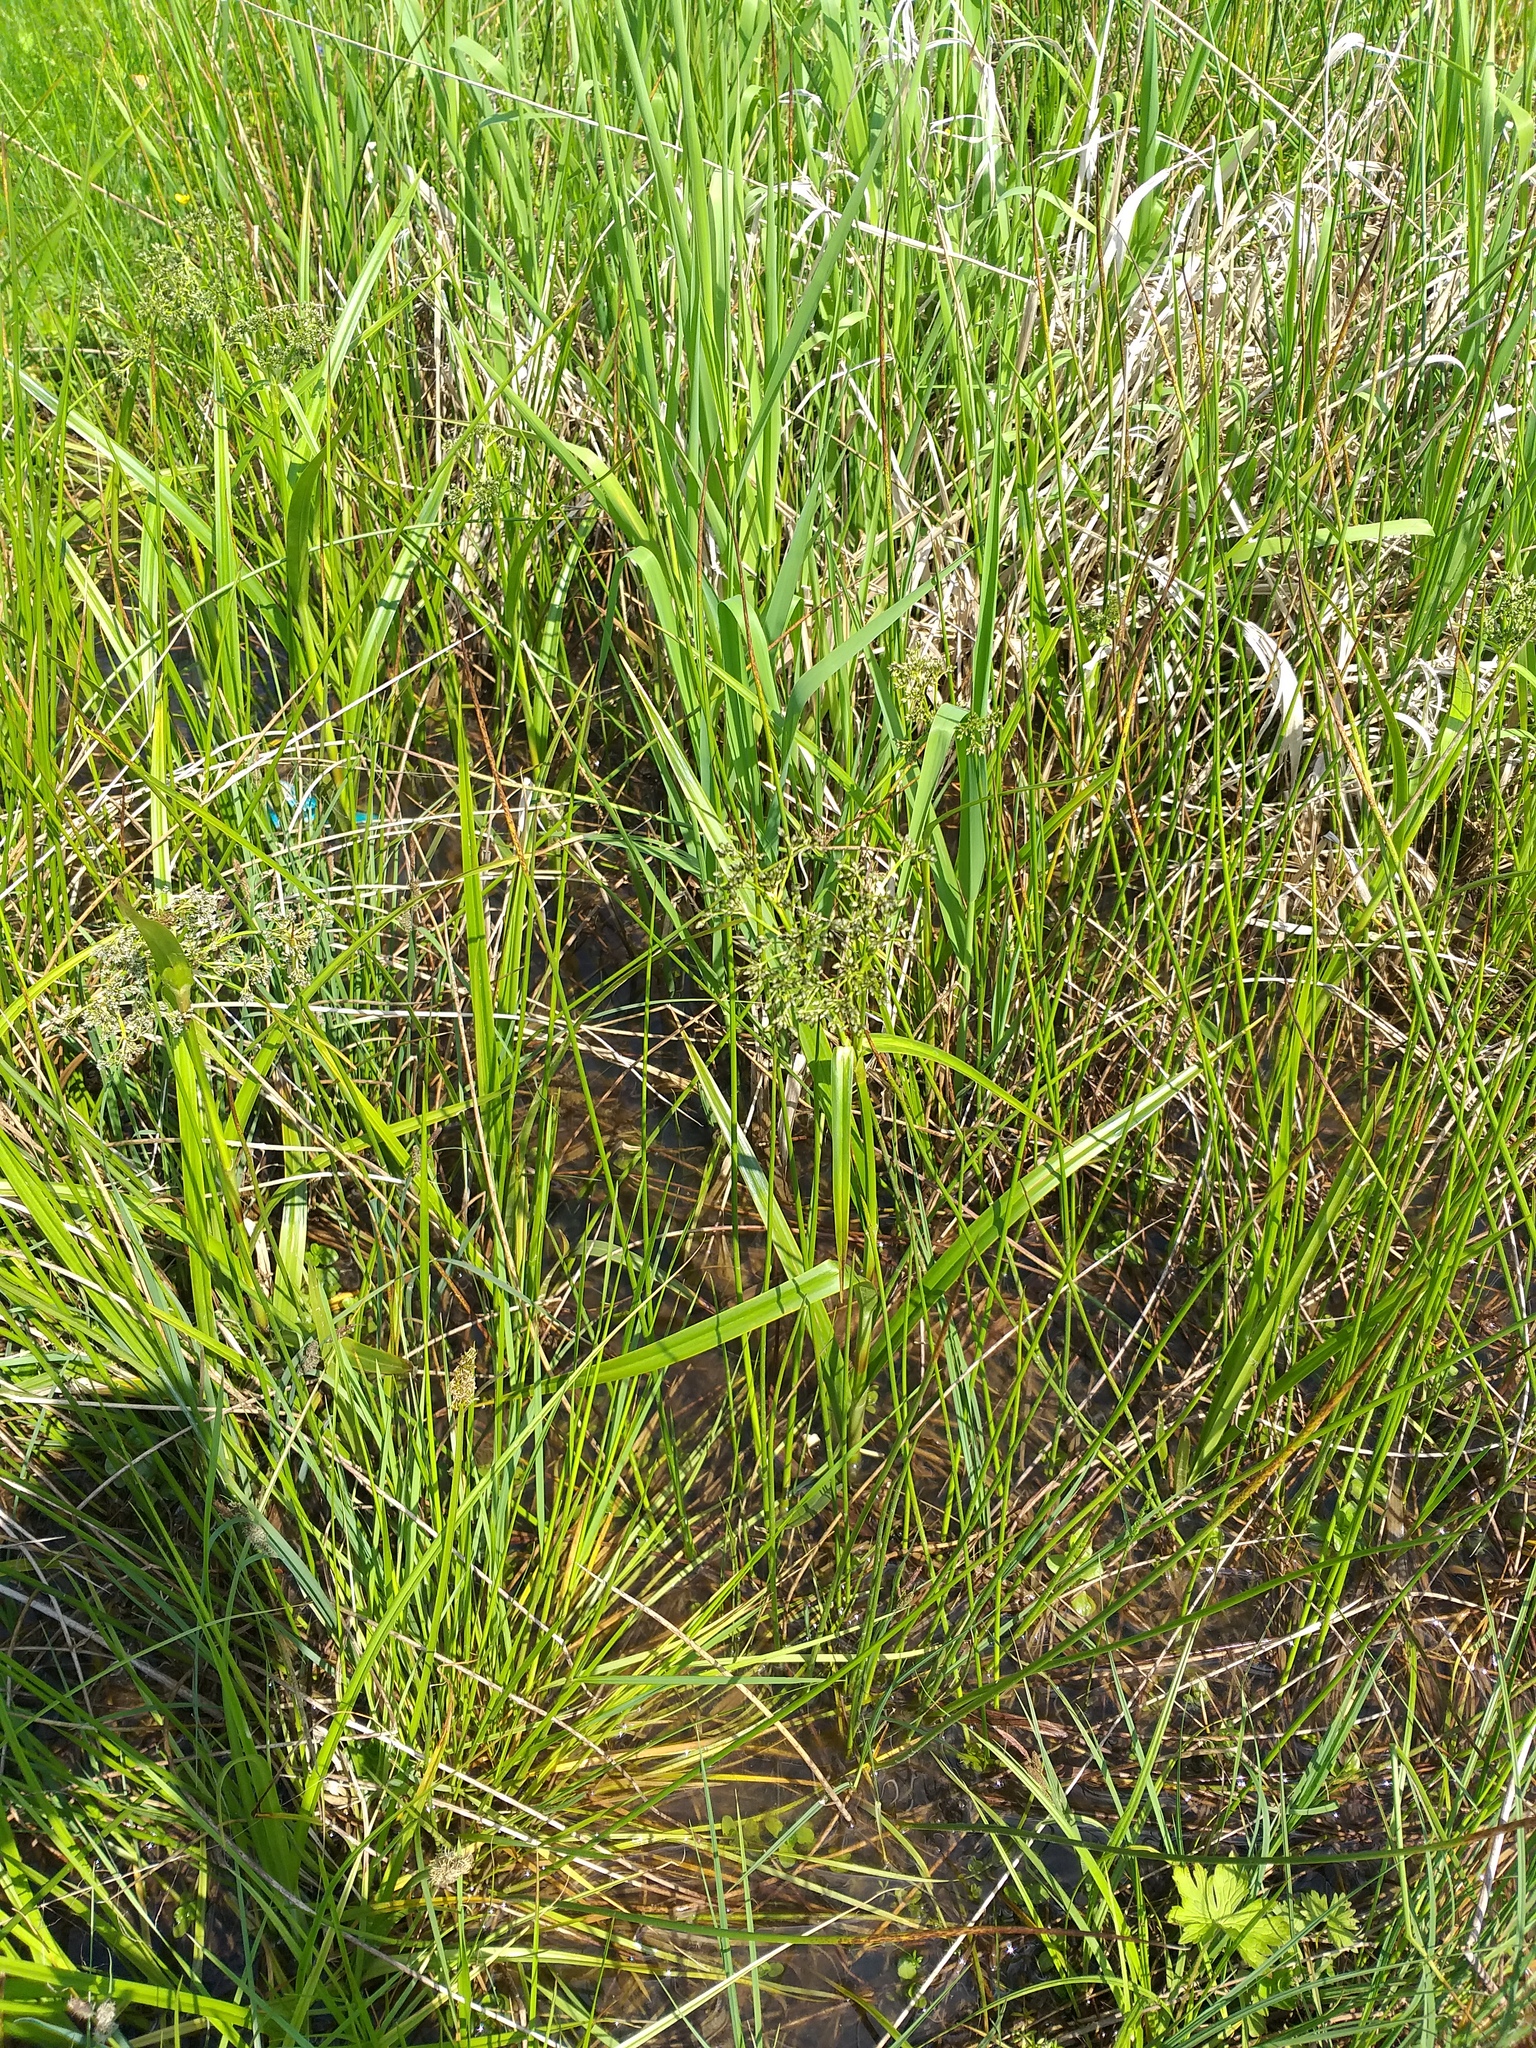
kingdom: Plantae
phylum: Tracheophyta
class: Liliopsida
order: Poales
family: Cyperaceae
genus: Scirpus
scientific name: Scirpus sylvaticus
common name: Wood club-rush
